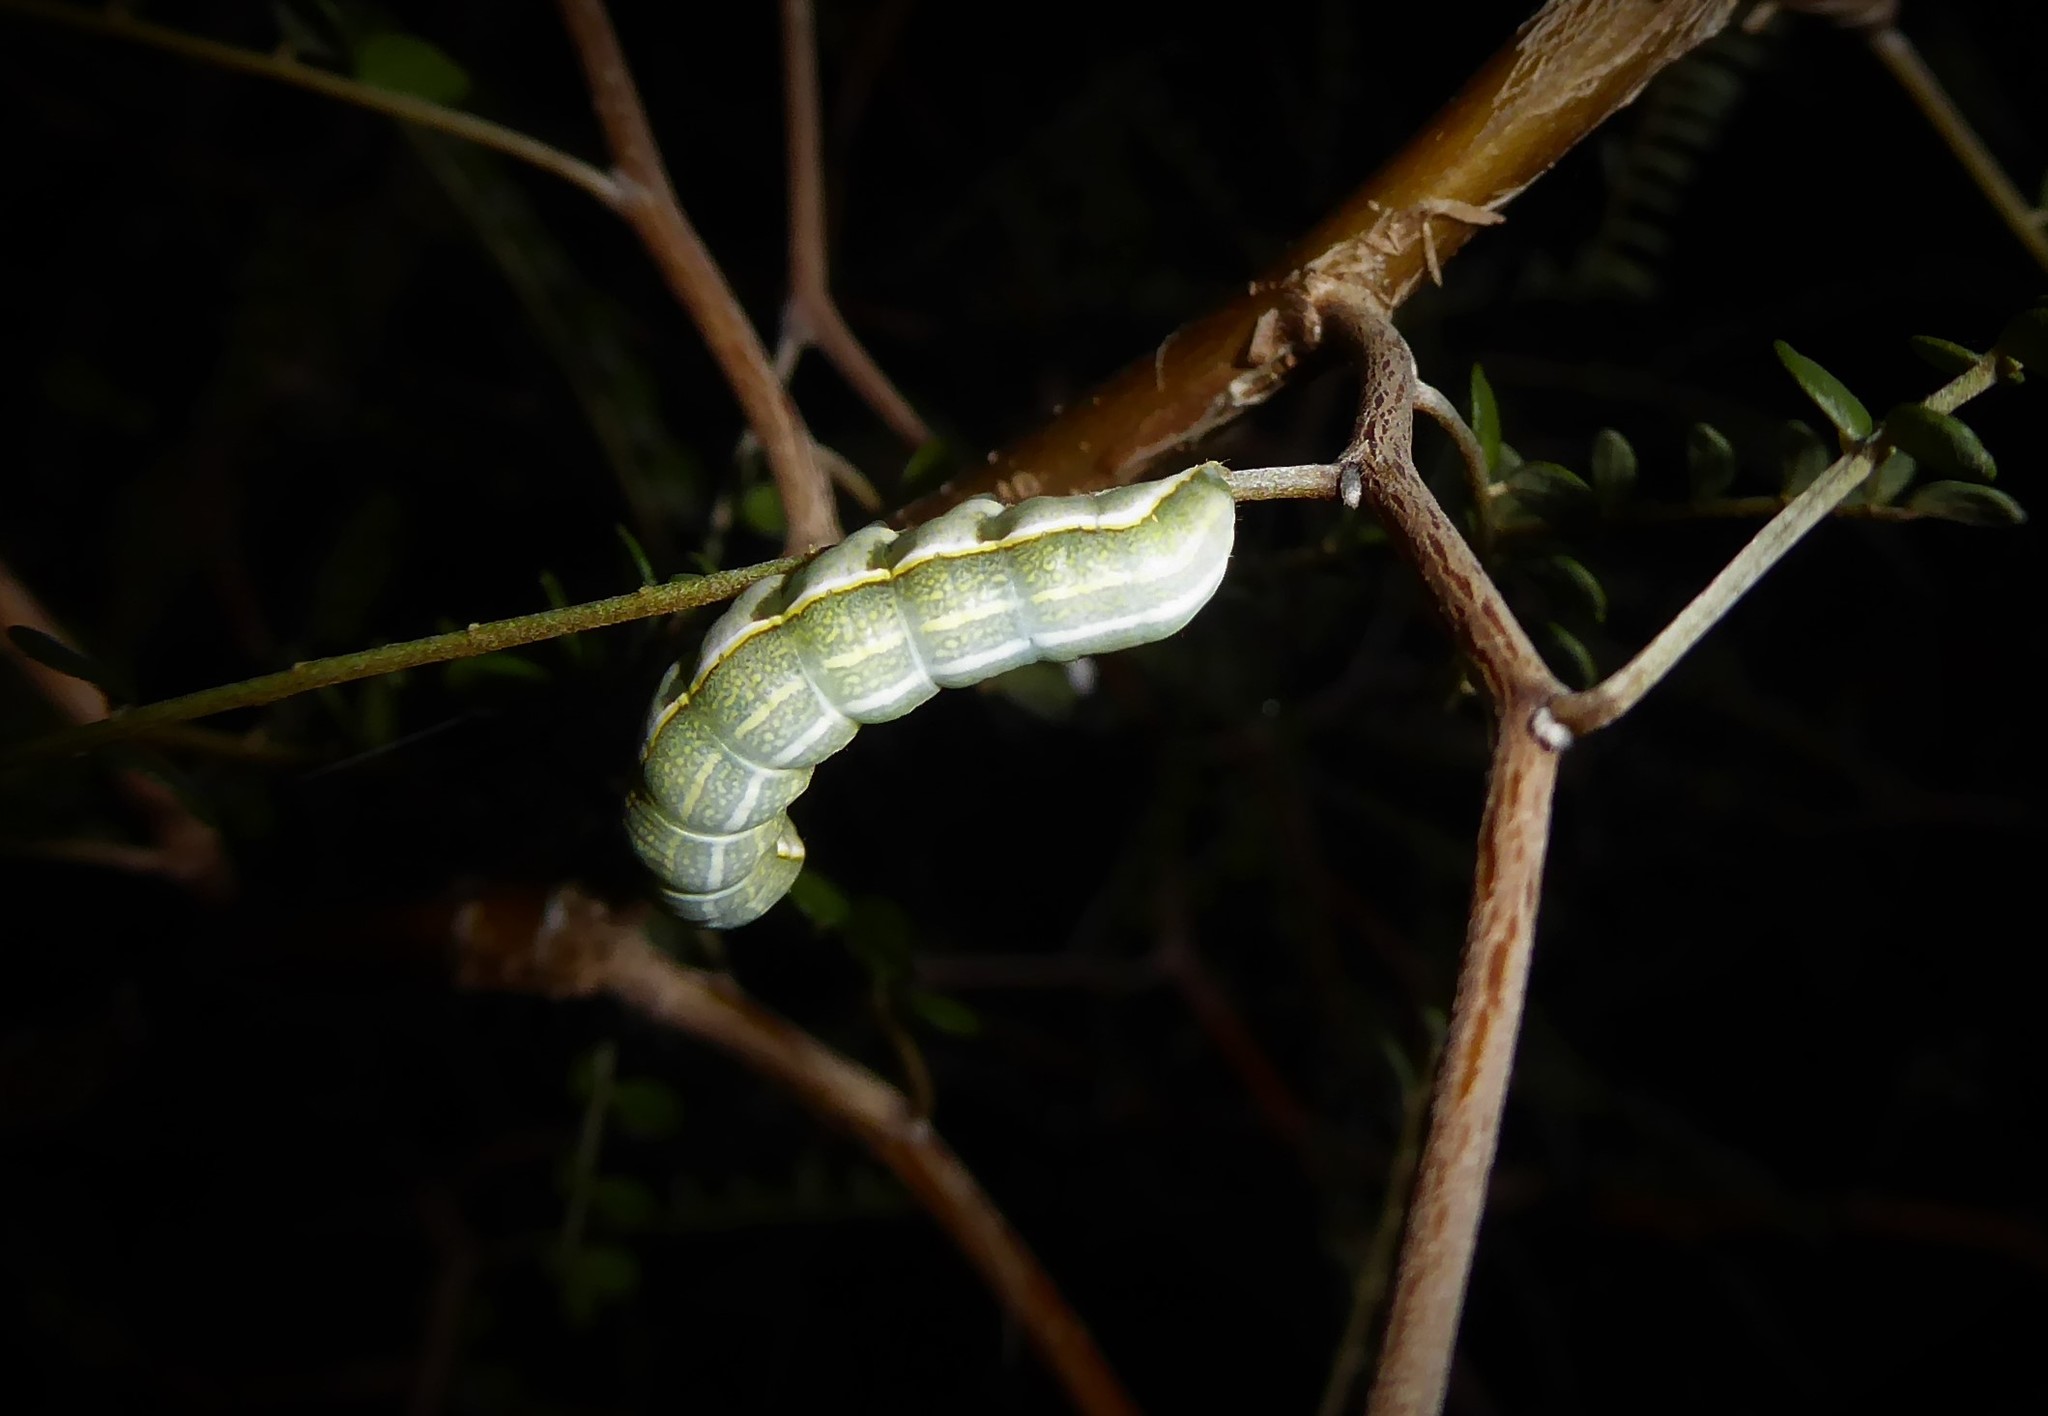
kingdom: Animalia
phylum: Arthropoda
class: Insecta
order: Lepidoptera
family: Noctuidae
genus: Meterana
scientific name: Meterana decorata
